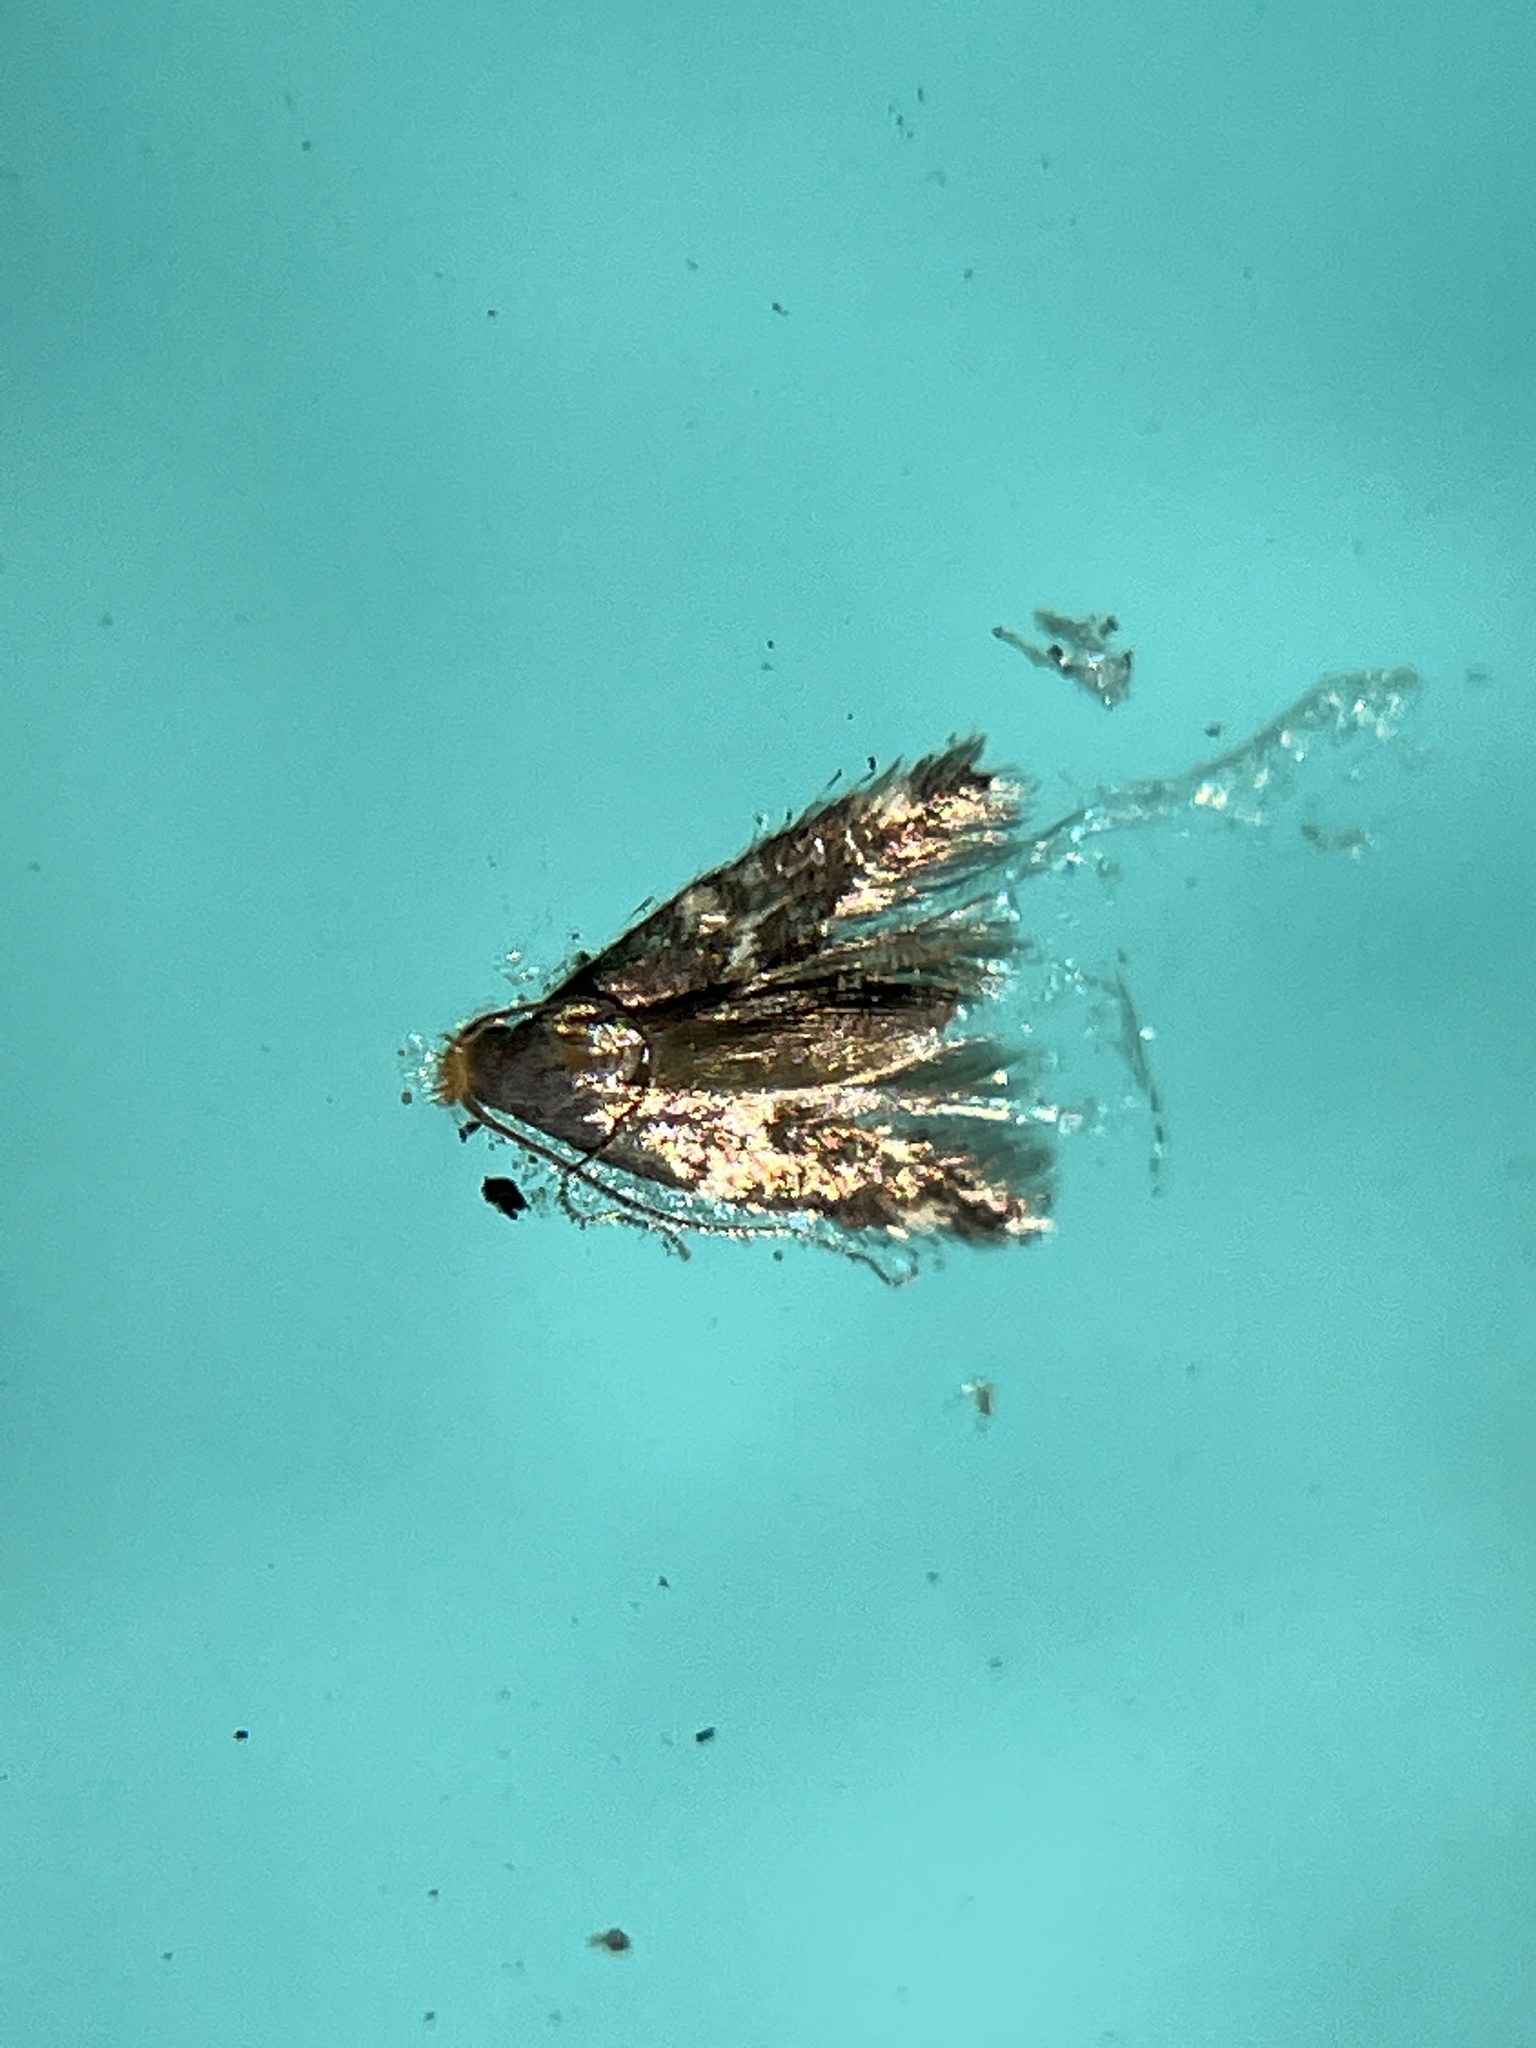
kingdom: Animalia
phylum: Arthropoda
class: Insecta
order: Lepidoptera
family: Tineidae
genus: Oinophila
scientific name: Oinophila v-flava
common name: Yellow v moth
